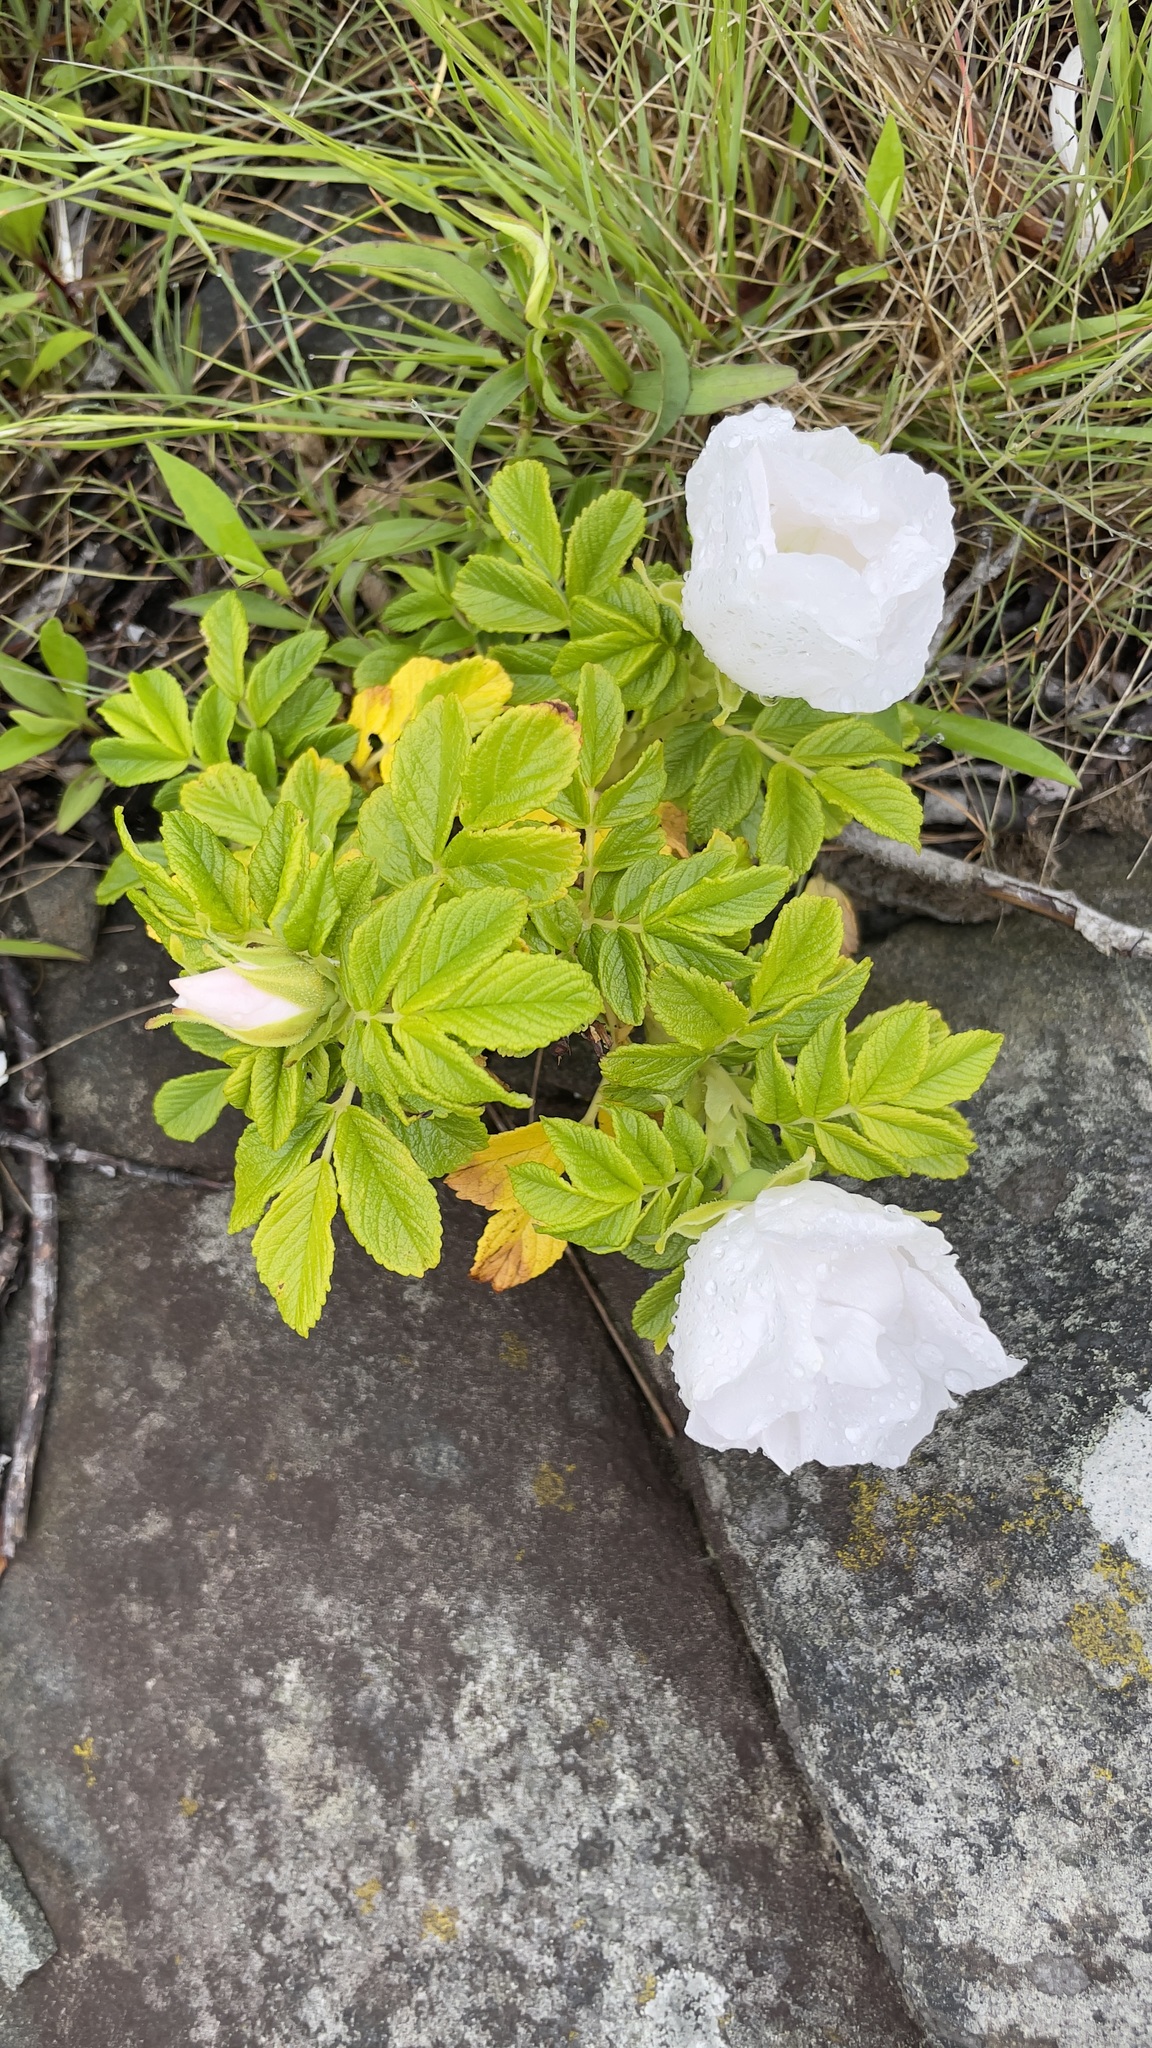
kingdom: Plantae
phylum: Tracheophyta
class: Magnoliopsida
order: Rosales
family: Rosaceae
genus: Rosa
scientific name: Rosa rugosa
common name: Japanese rose
